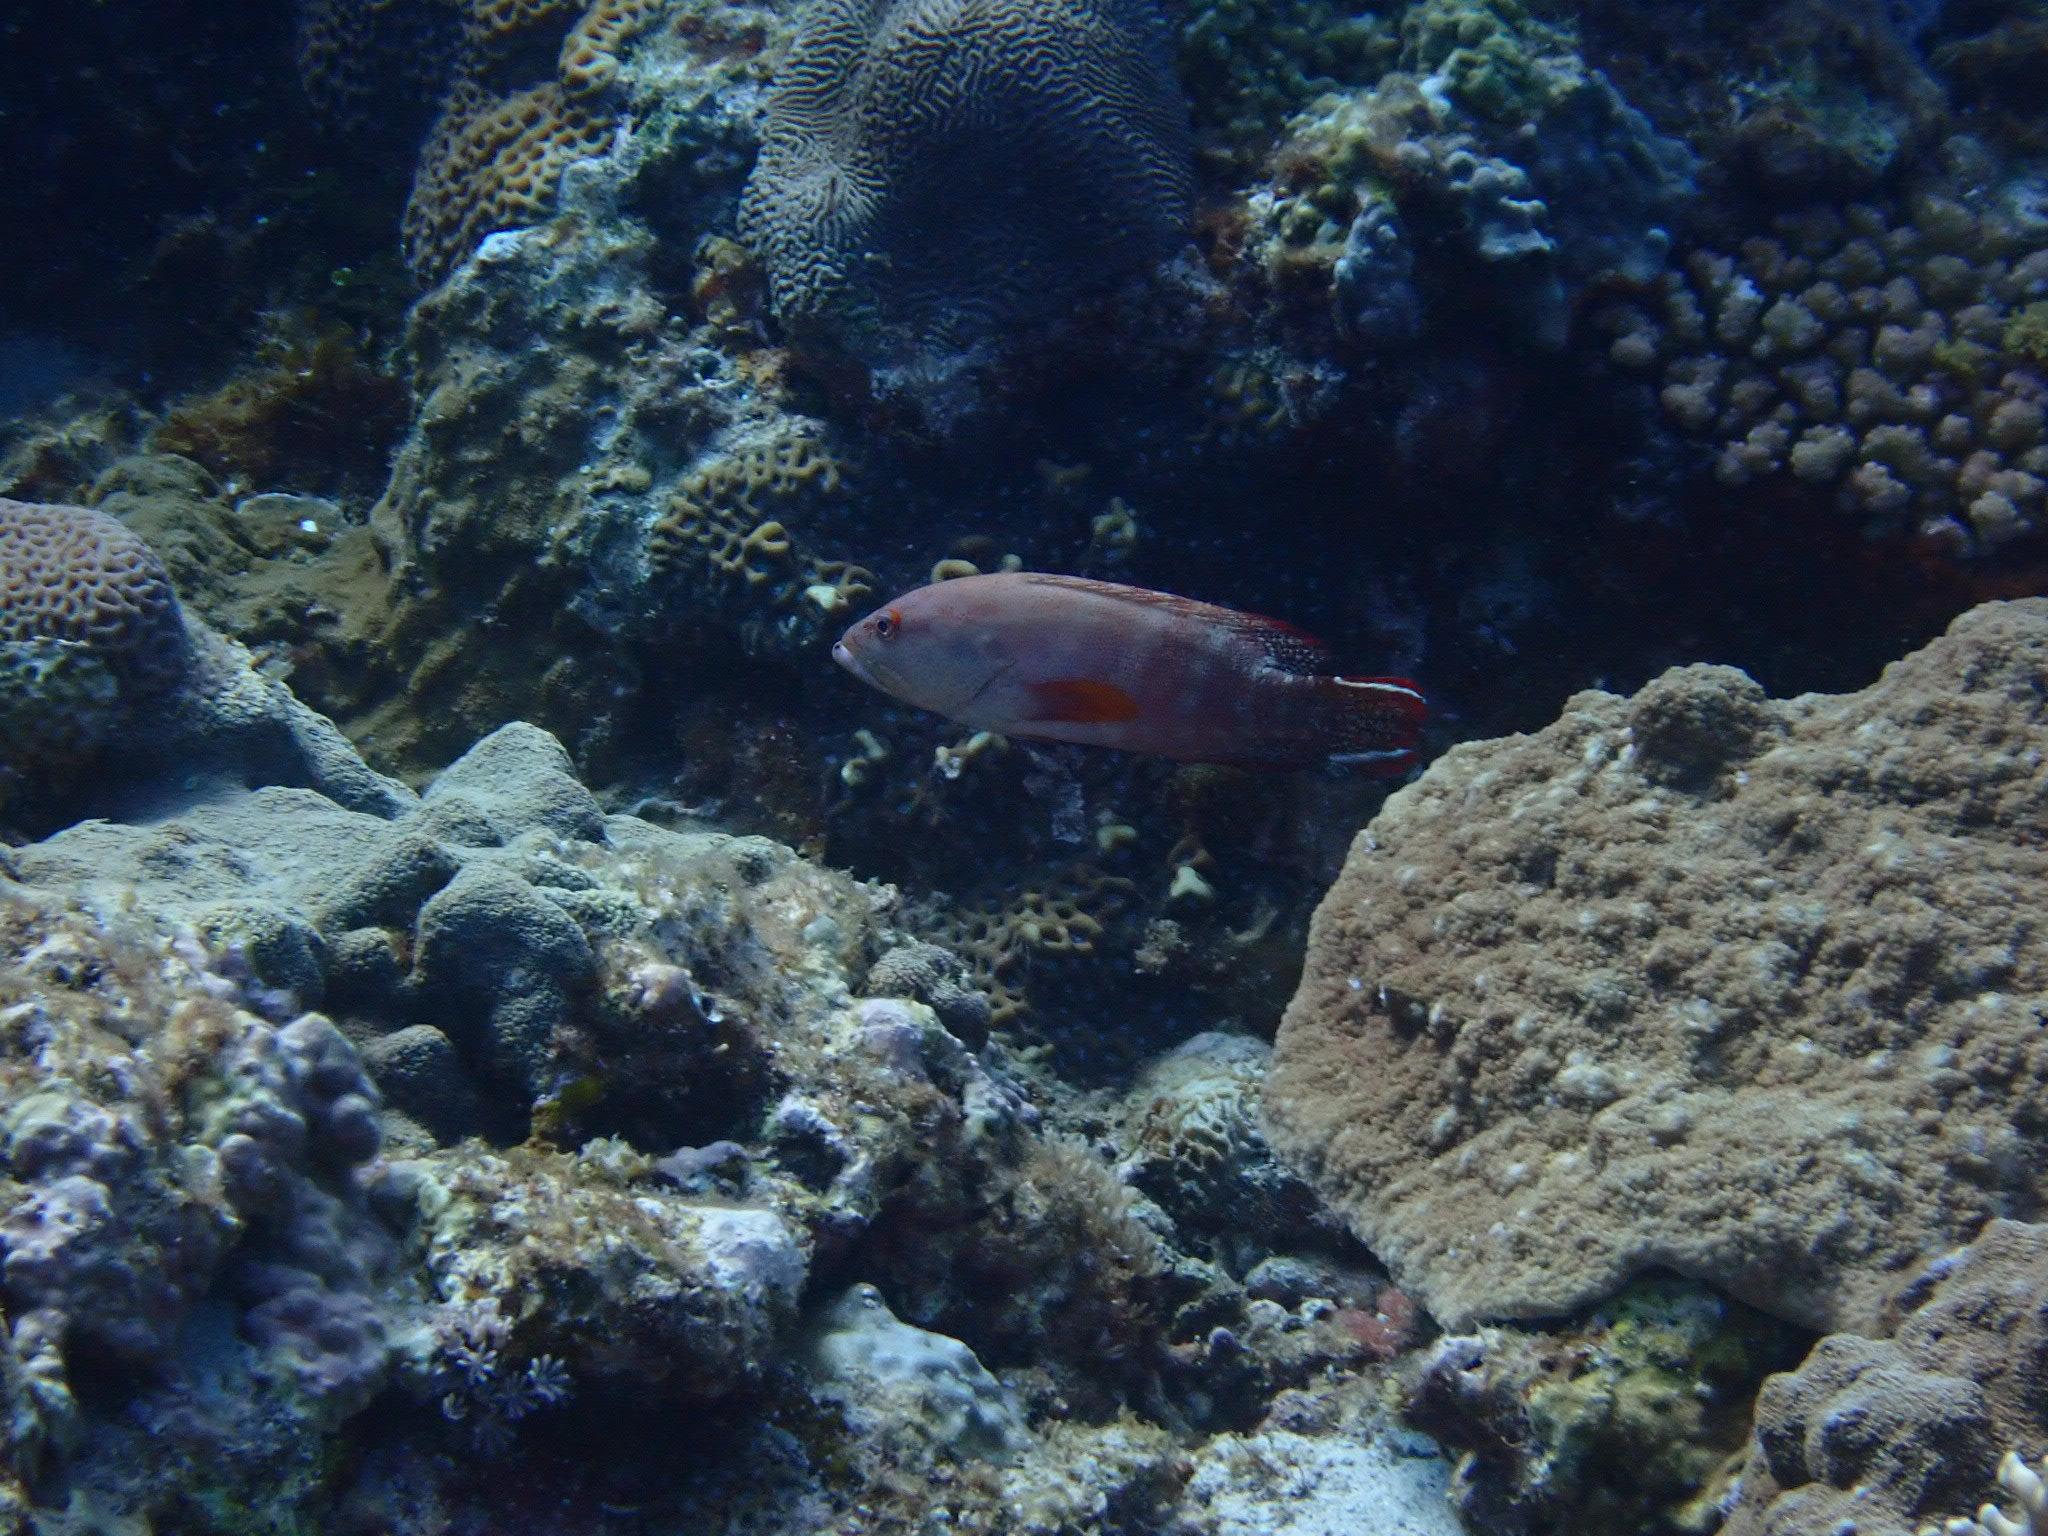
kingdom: Animalia
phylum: Chordata
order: Perciformes
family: Serranidae
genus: Cephalopholis
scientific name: Cephalopholis urodeta
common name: Darkfin hind
